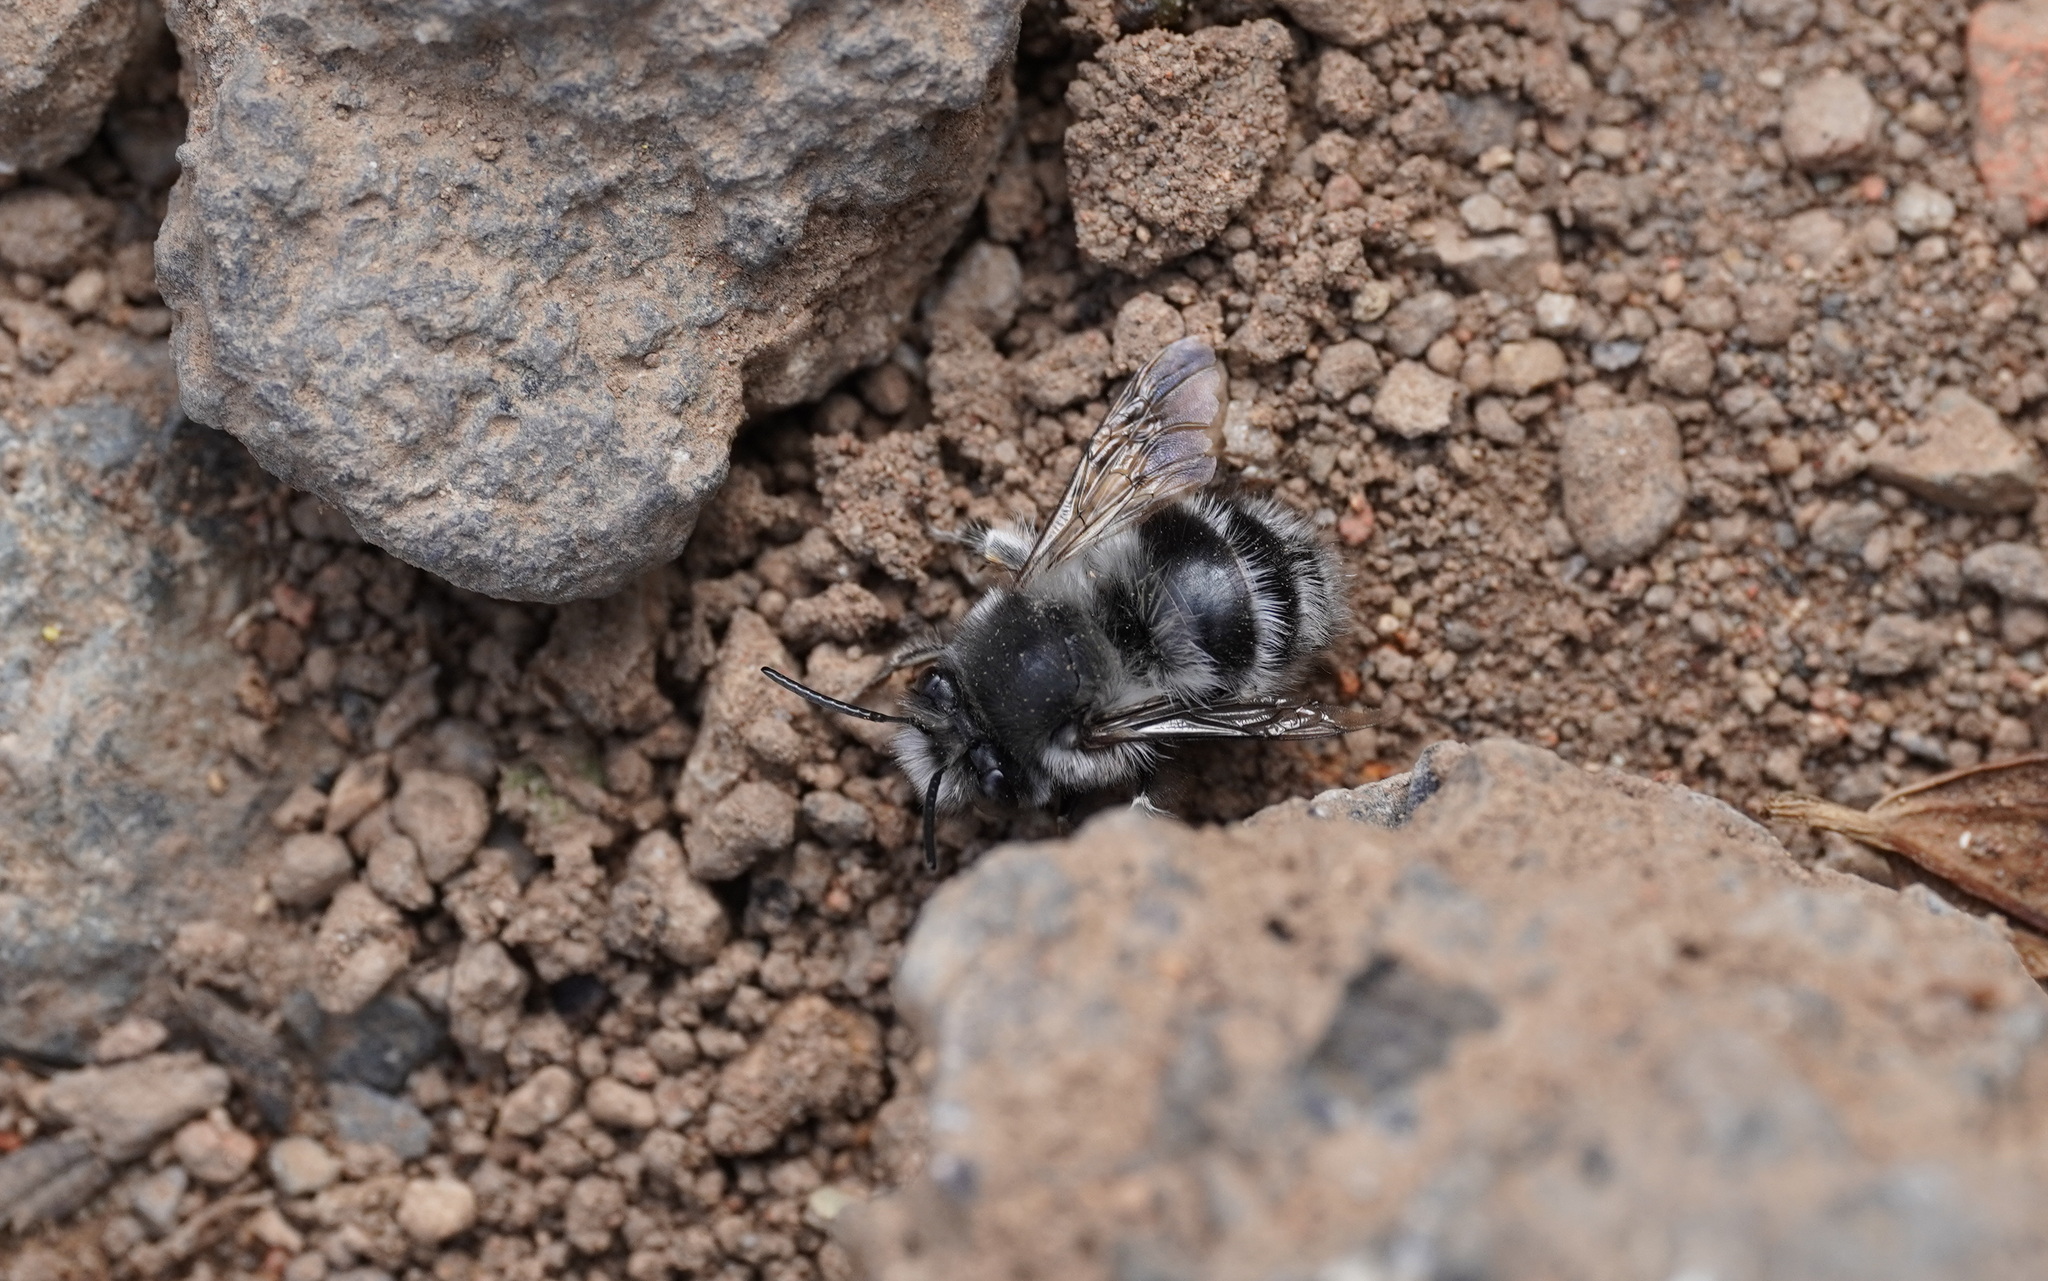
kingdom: Animalia
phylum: Arthropoda
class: Insecta
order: Hymenoptera
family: Apidae
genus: Anthophora
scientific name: Anthophora alluaudi
